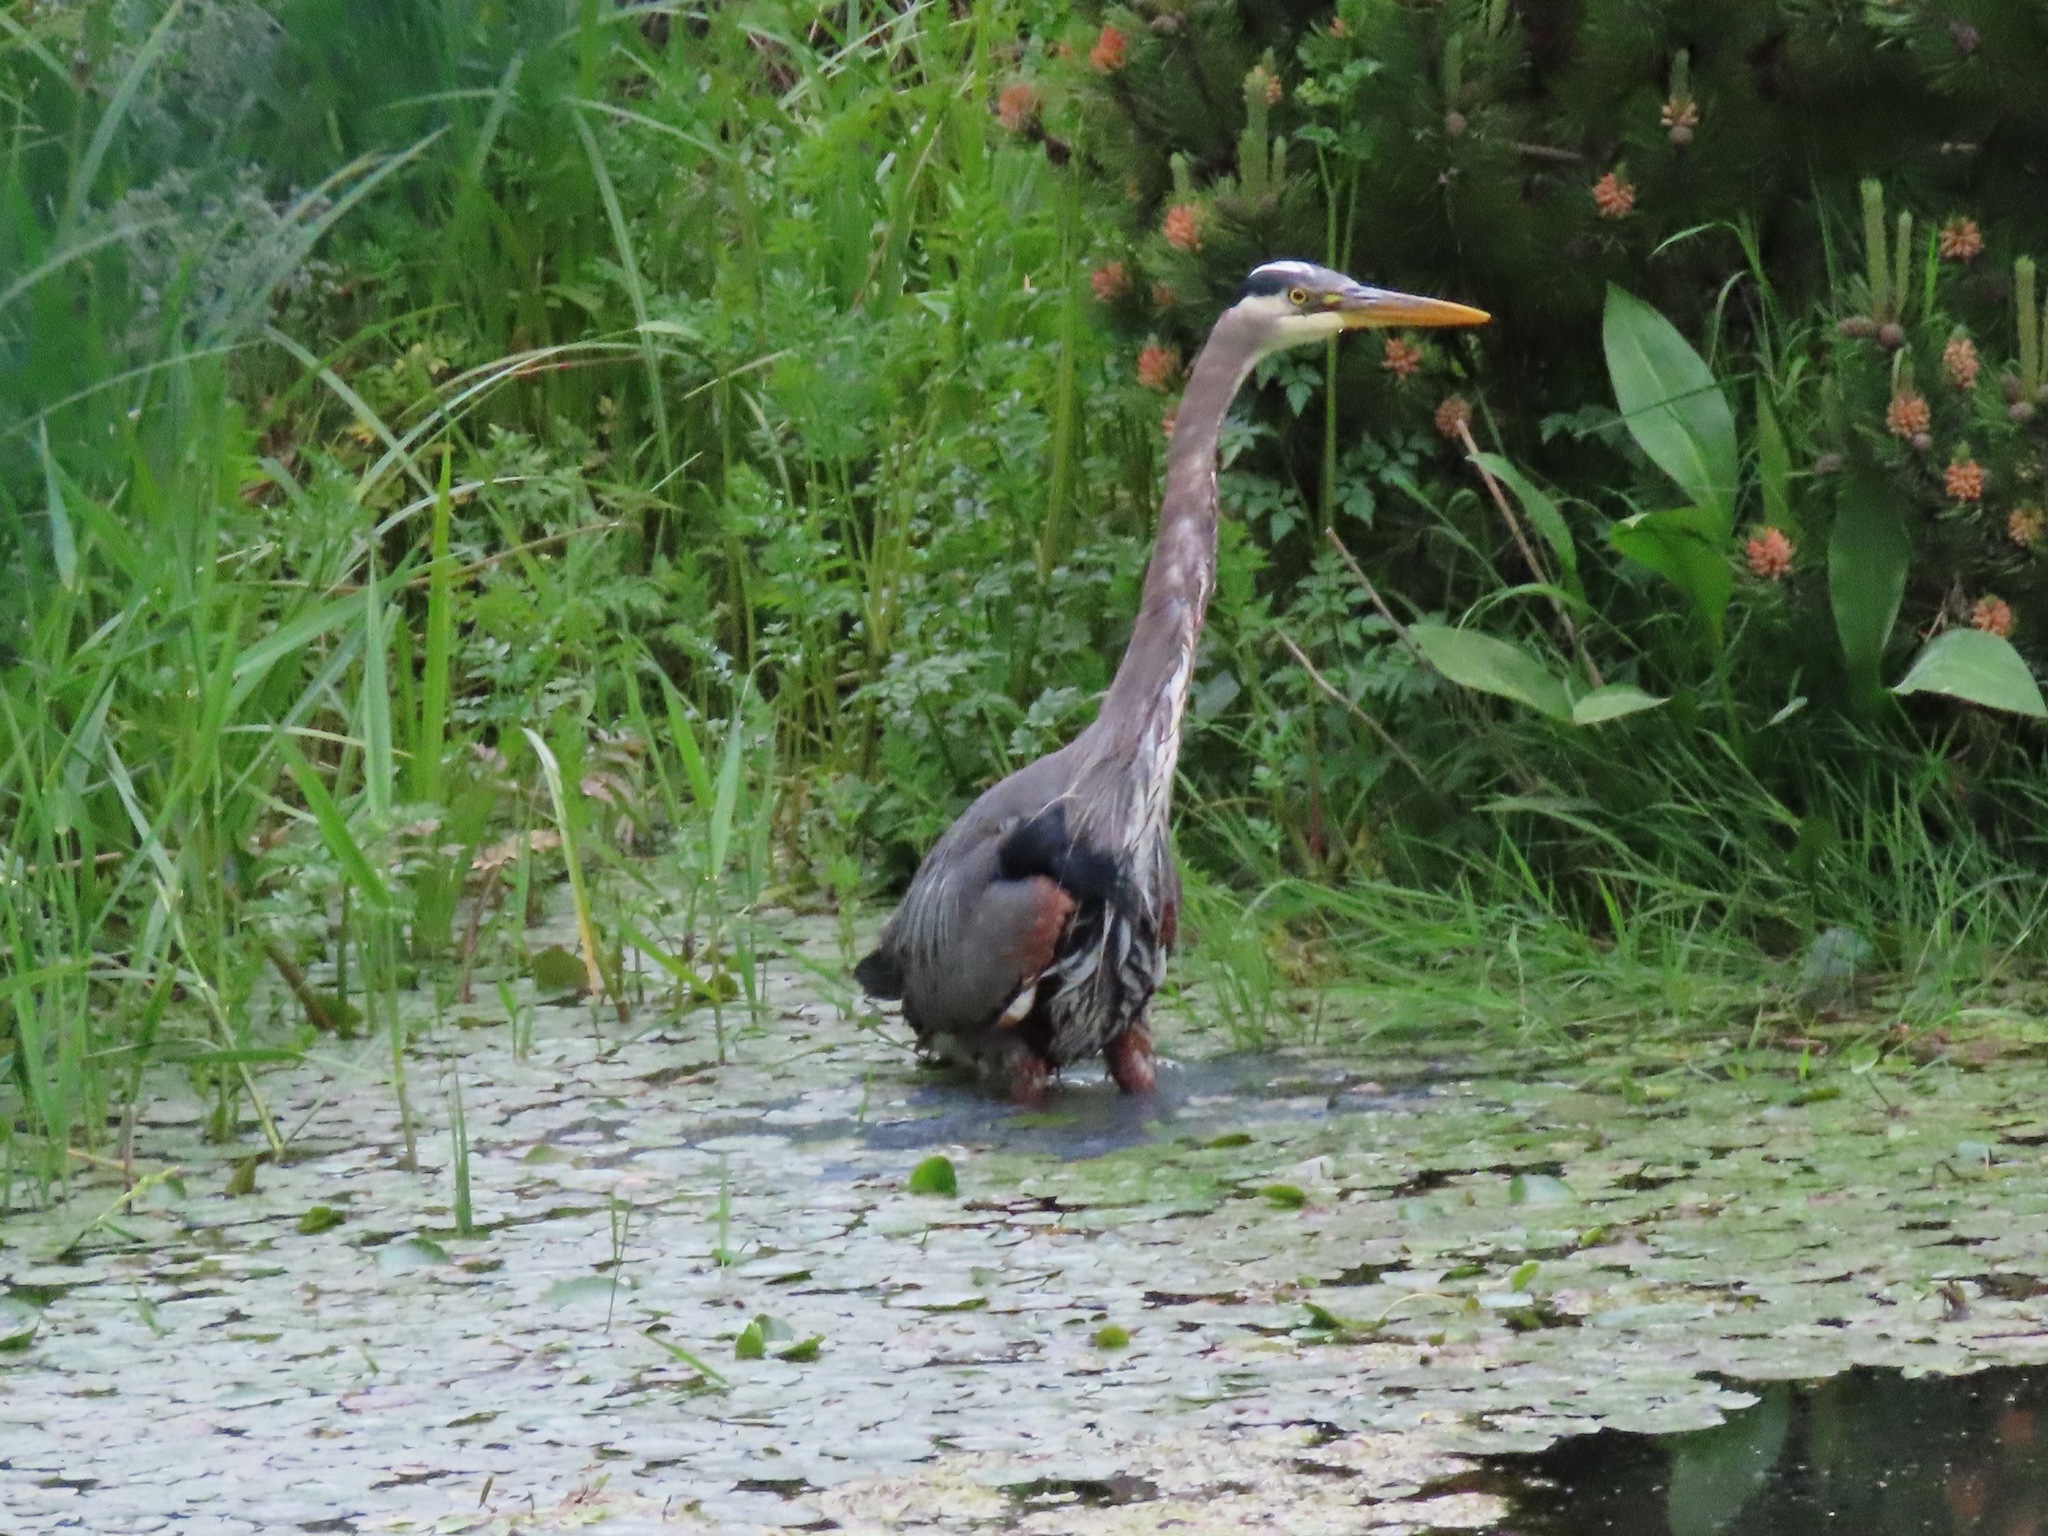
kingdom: Animalia
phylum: Chordata
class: Aves
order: Pelecaniformes
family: Ardeidae
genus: Ardea
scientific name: Ardea herodias
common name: Great blue heron
